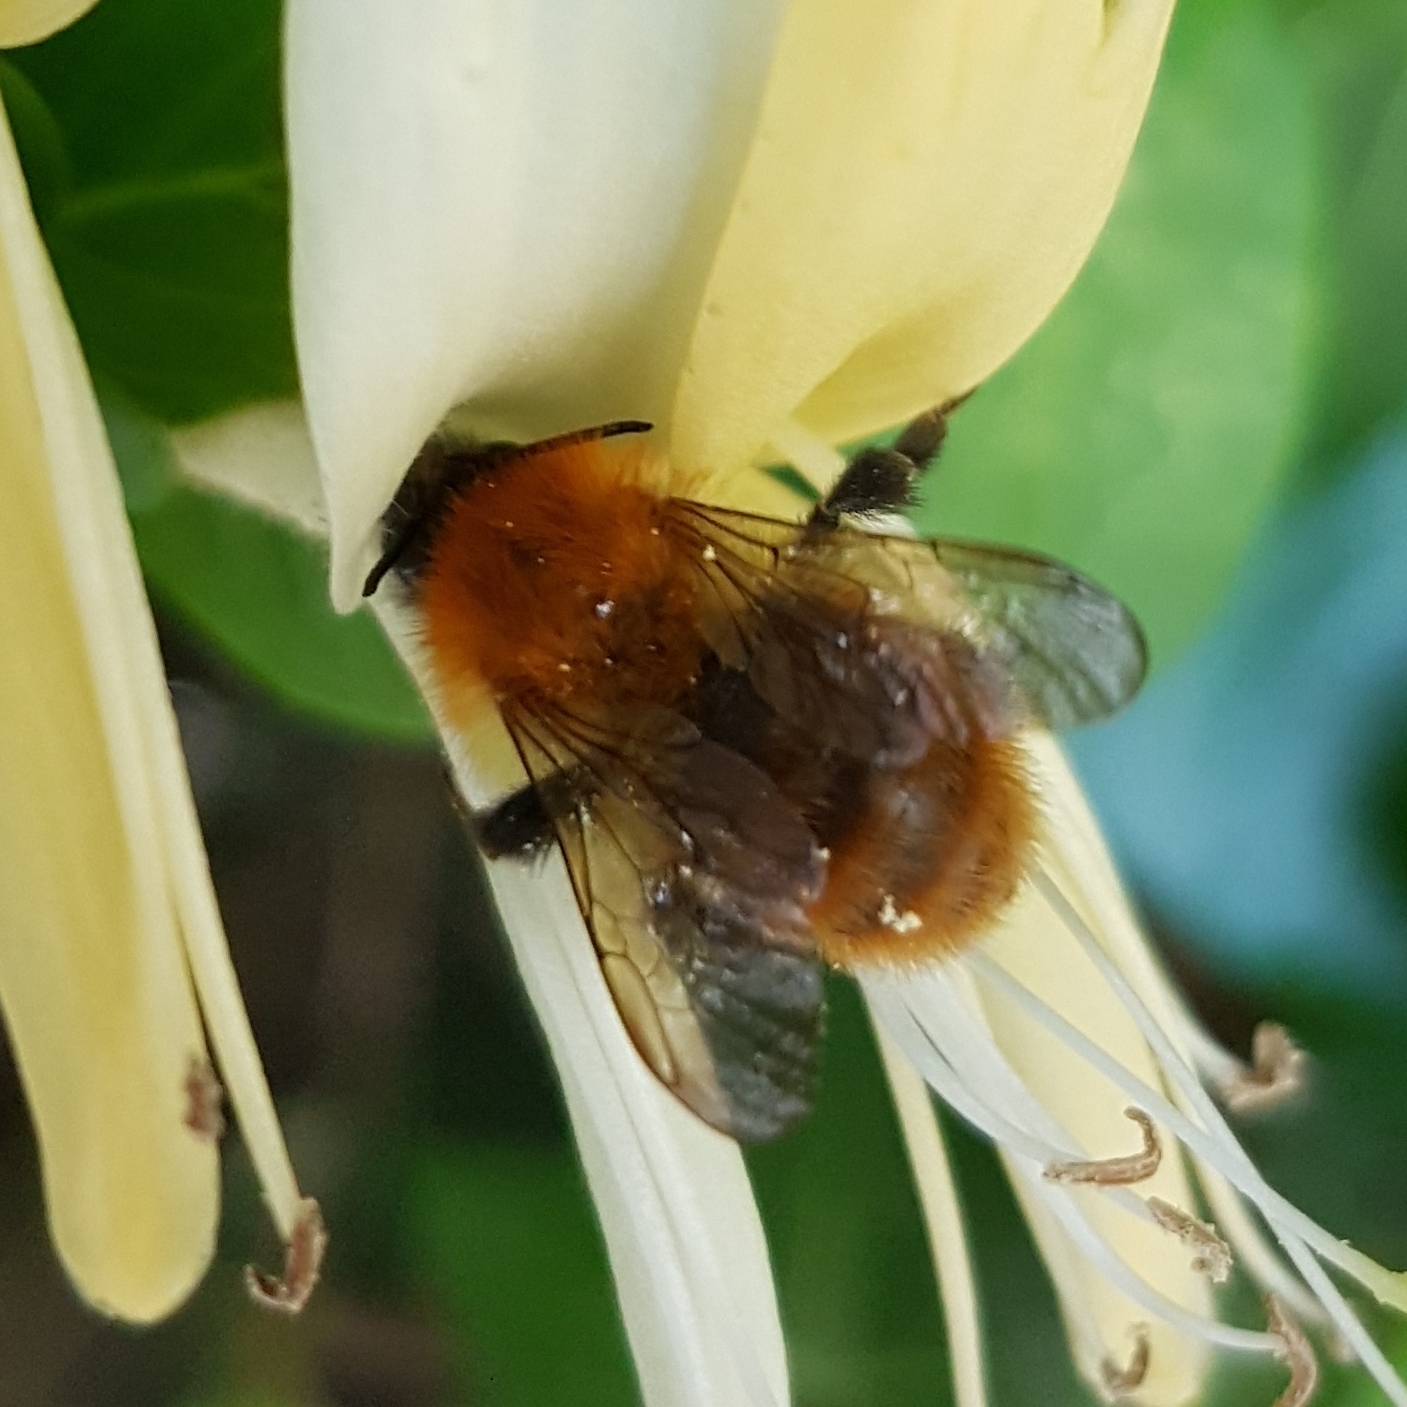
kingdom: Animalia
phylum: Arthropoda
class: Insecta
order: Hymenoptera
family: Apidae
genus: Bombus
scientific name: Bombus pascuorum
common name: Common carder bee
